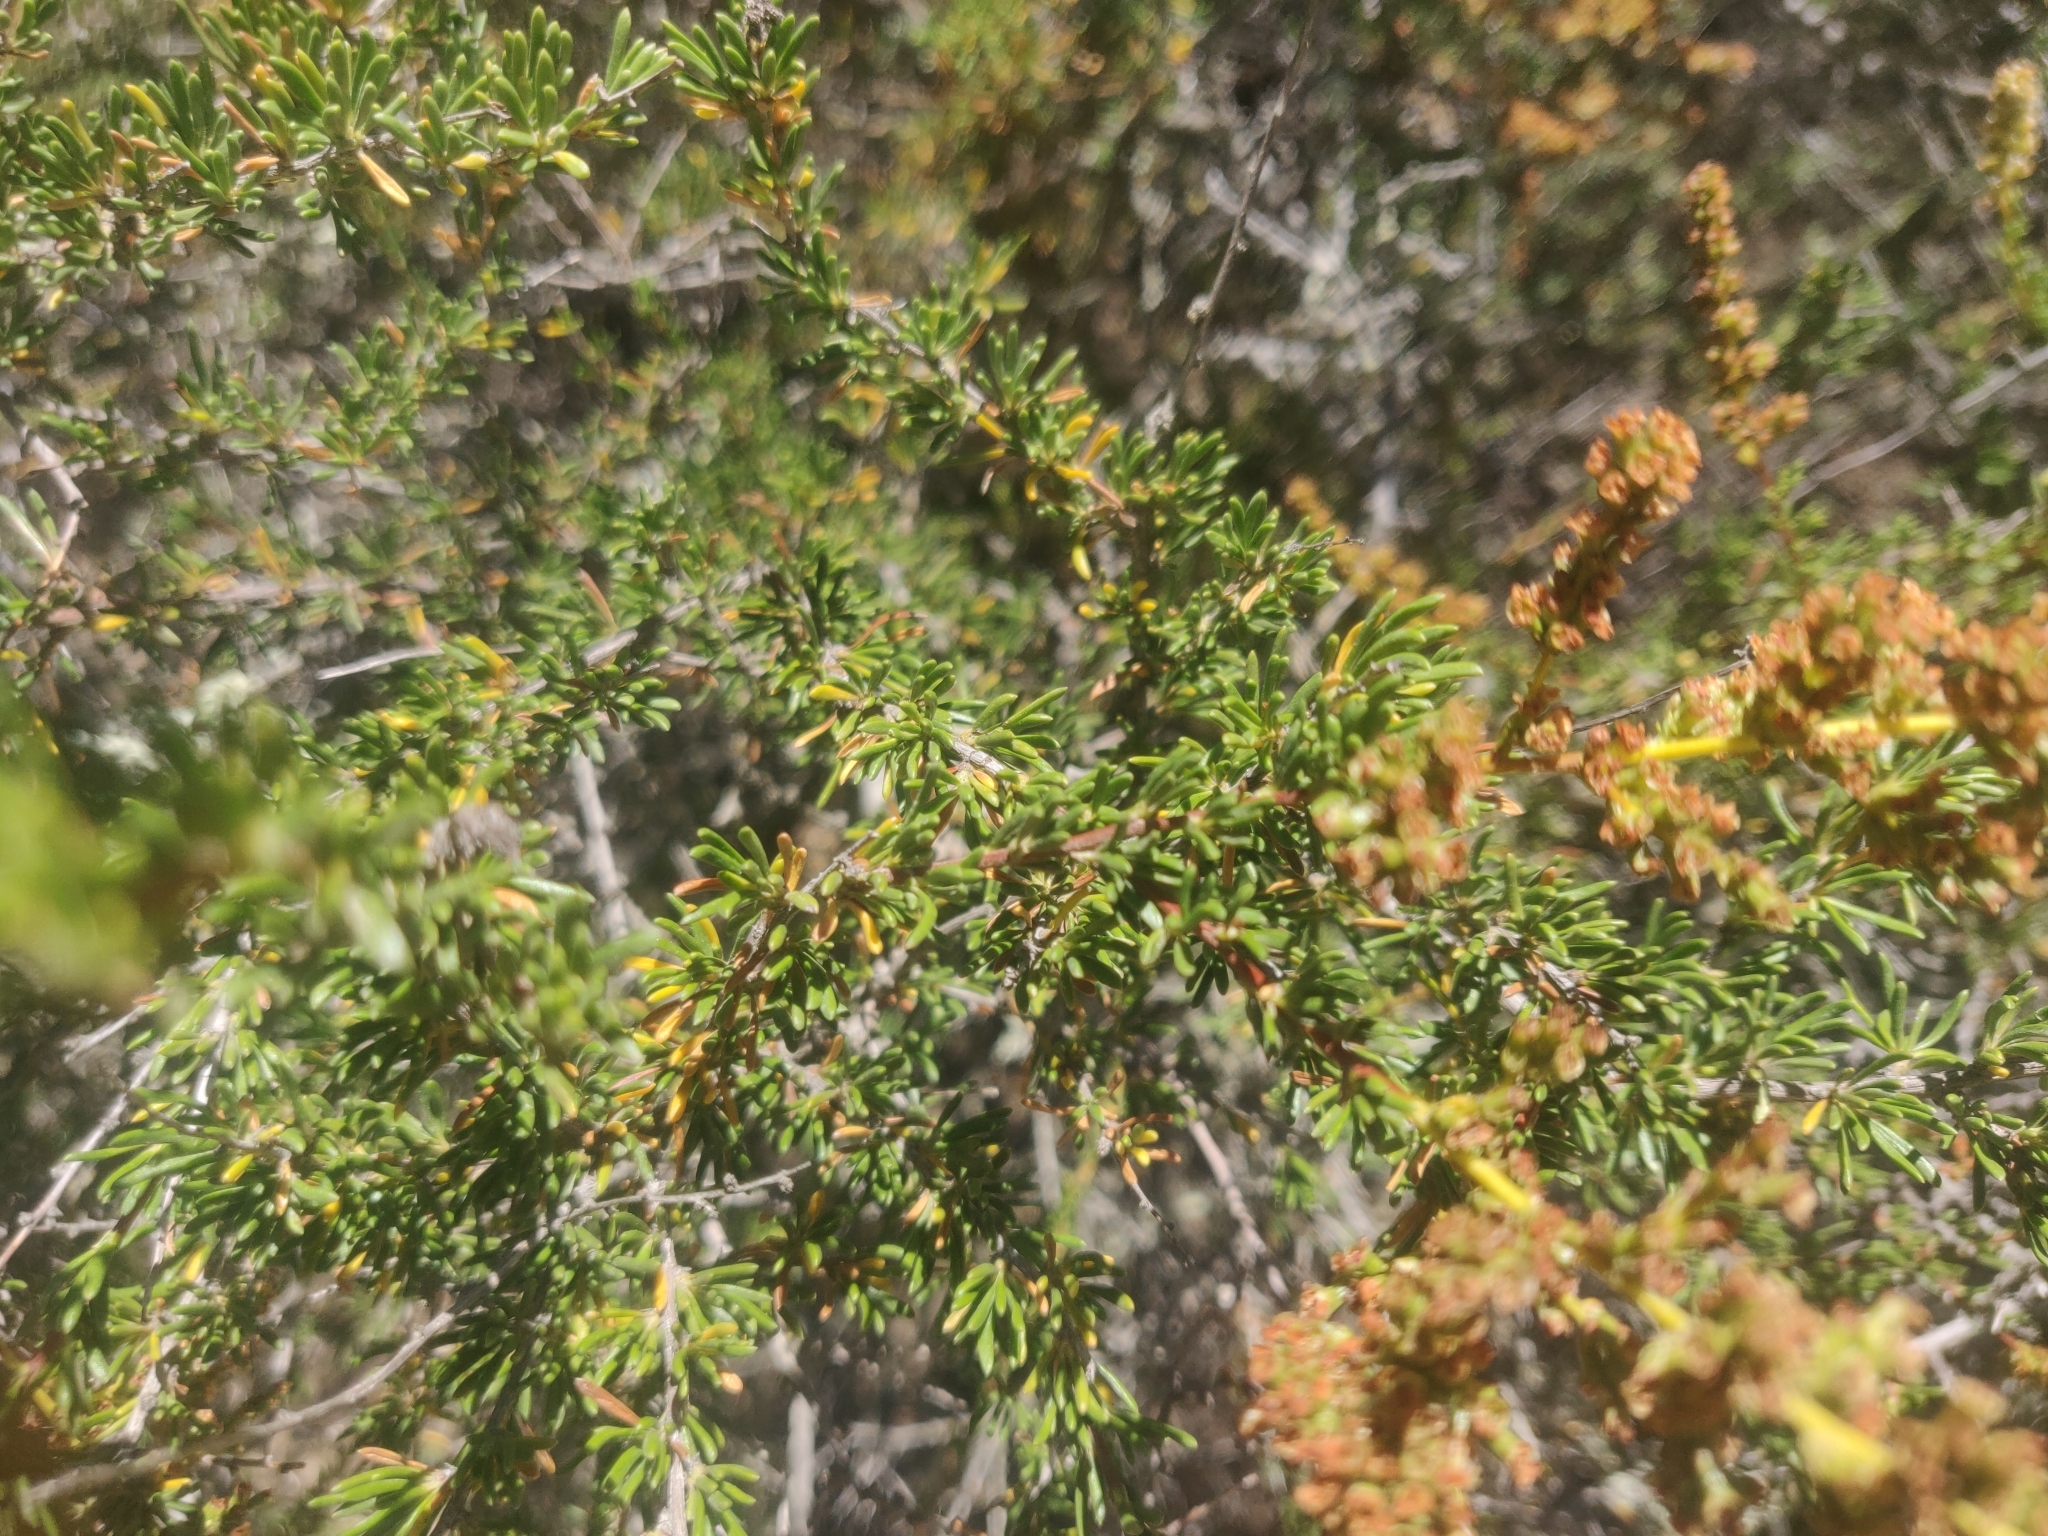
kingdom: Plantae
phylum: Tracheophyta
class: Magnoliopsida
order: Rosales
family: Rosaceae
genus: Adenostoma
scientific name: Adenostoma fasciculatum
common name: Chamise
